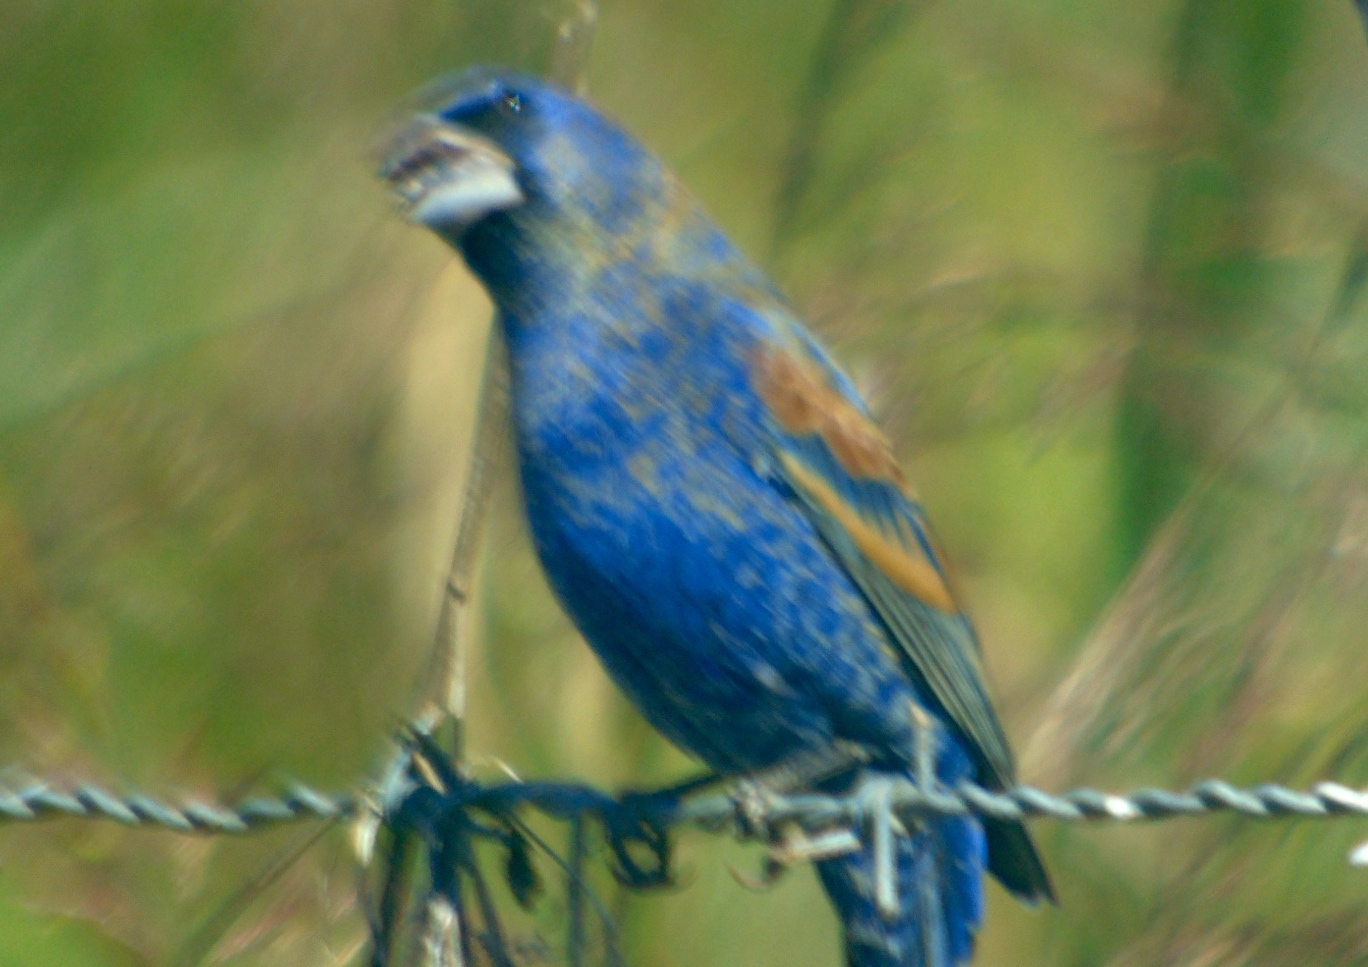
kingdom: Animalia
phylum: Chordata
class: Aves
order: Passeriformes
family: Cardinalidae
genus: Passerina
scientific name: Passerina caerulea
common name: Blue grosbeak
